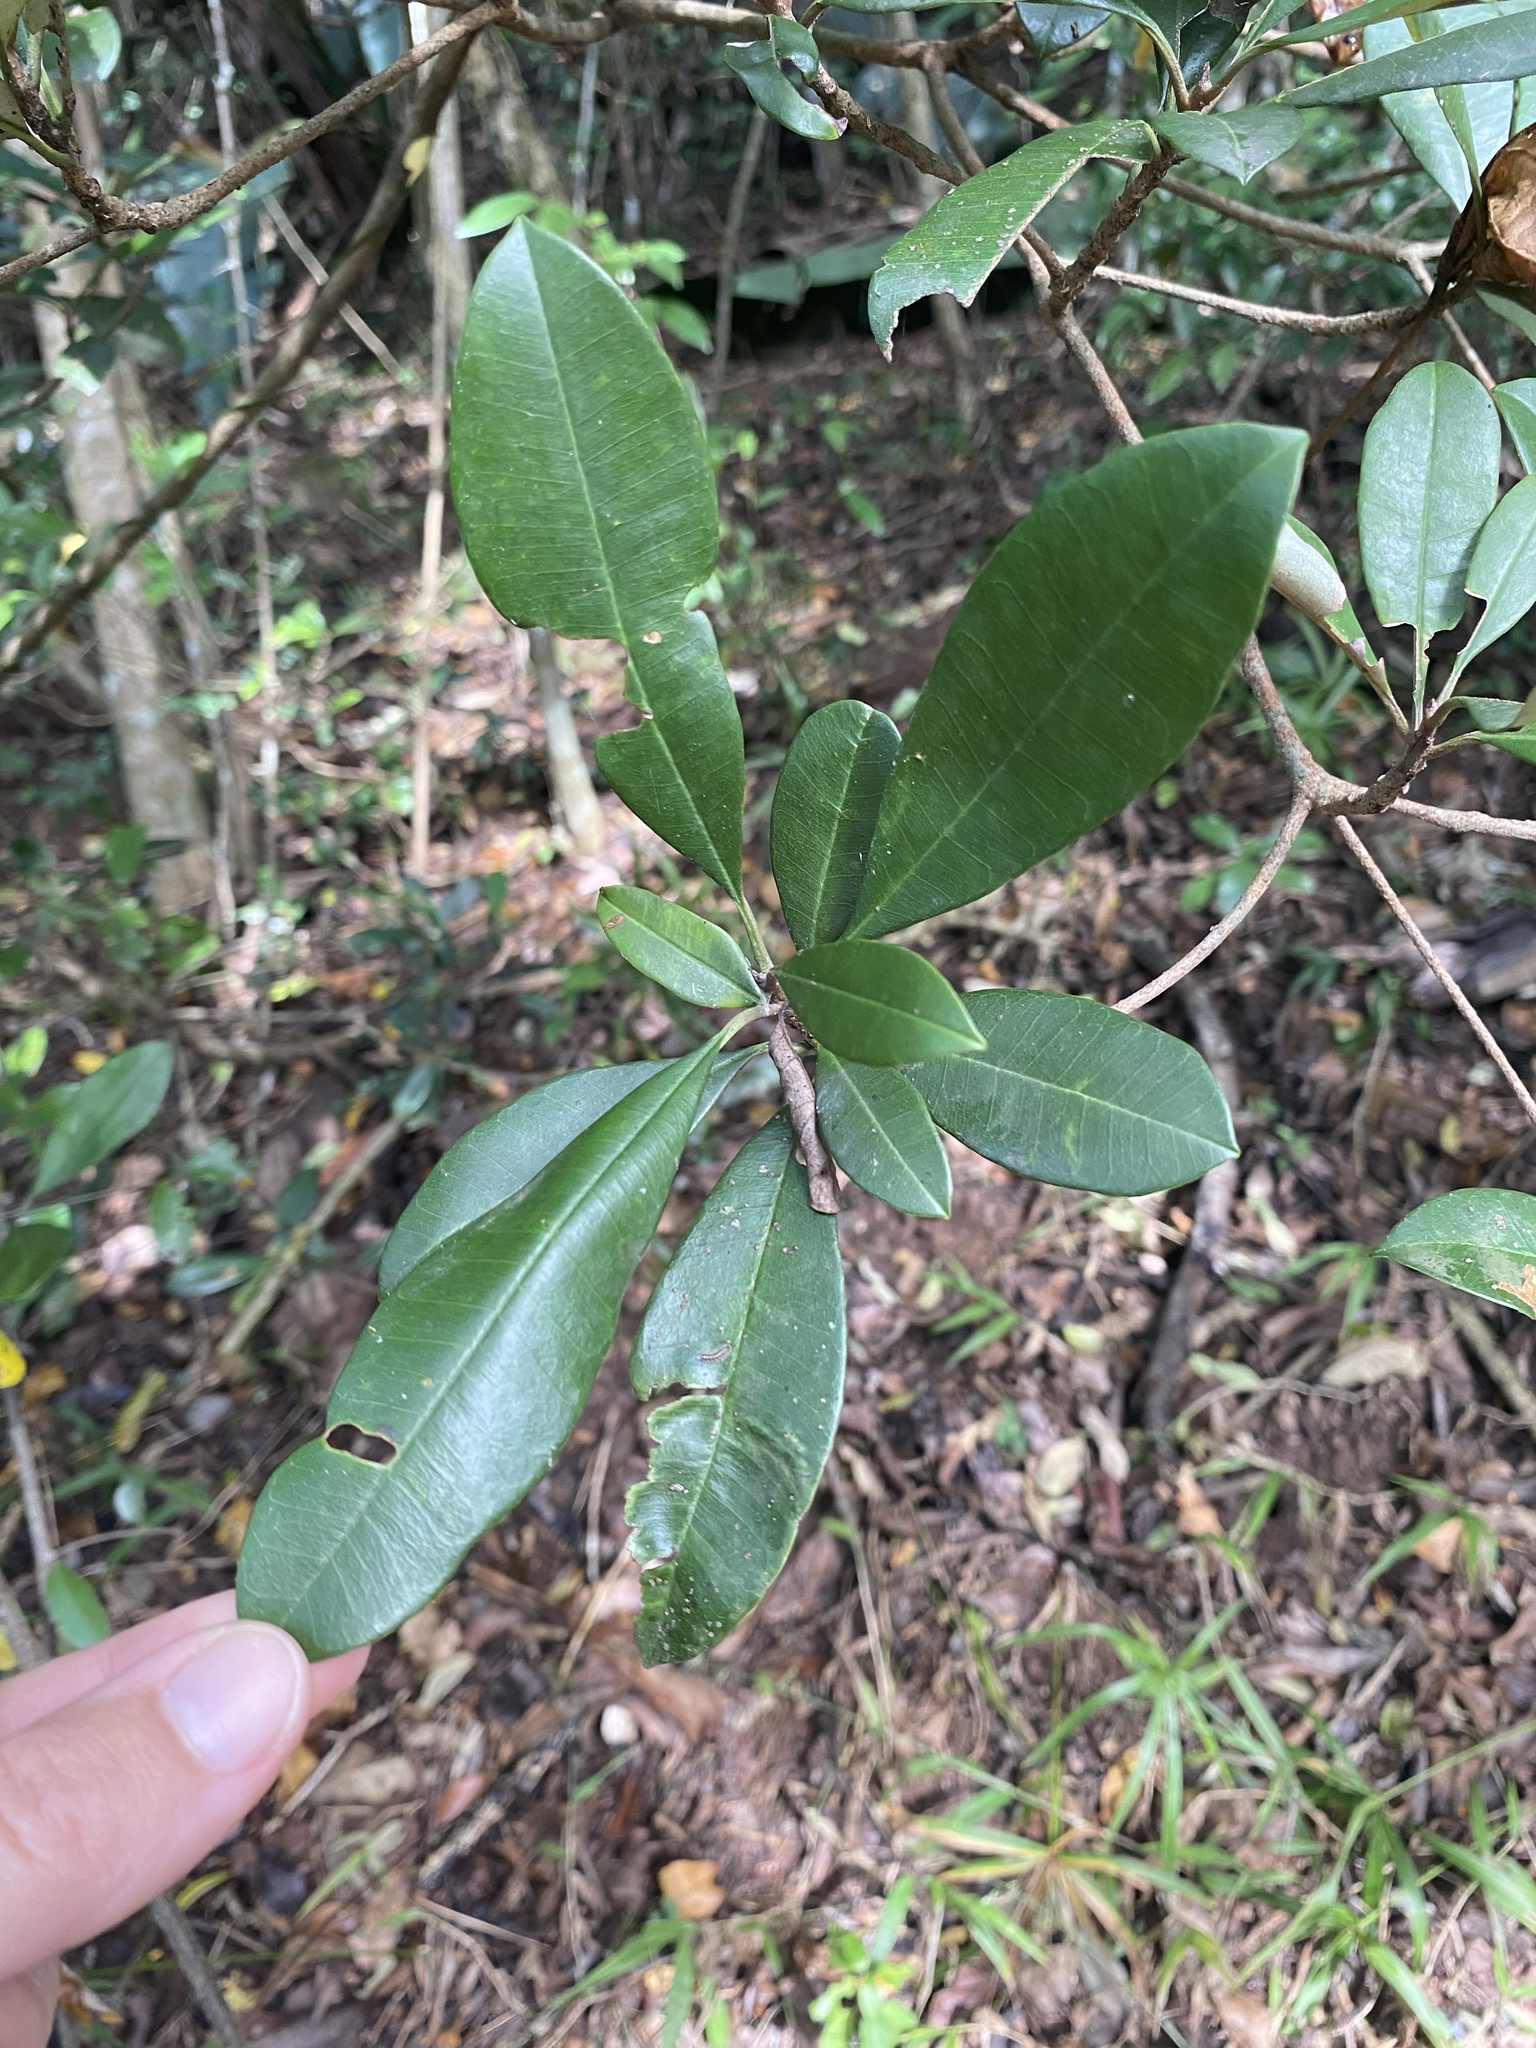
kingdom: Plantae
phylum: Tracheophyta
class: Magnoliopsida
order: Ericales
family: Sapotaceae
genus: Englerophytum
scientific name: Englerophytum natalense
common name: Silver-leaved milkplum
